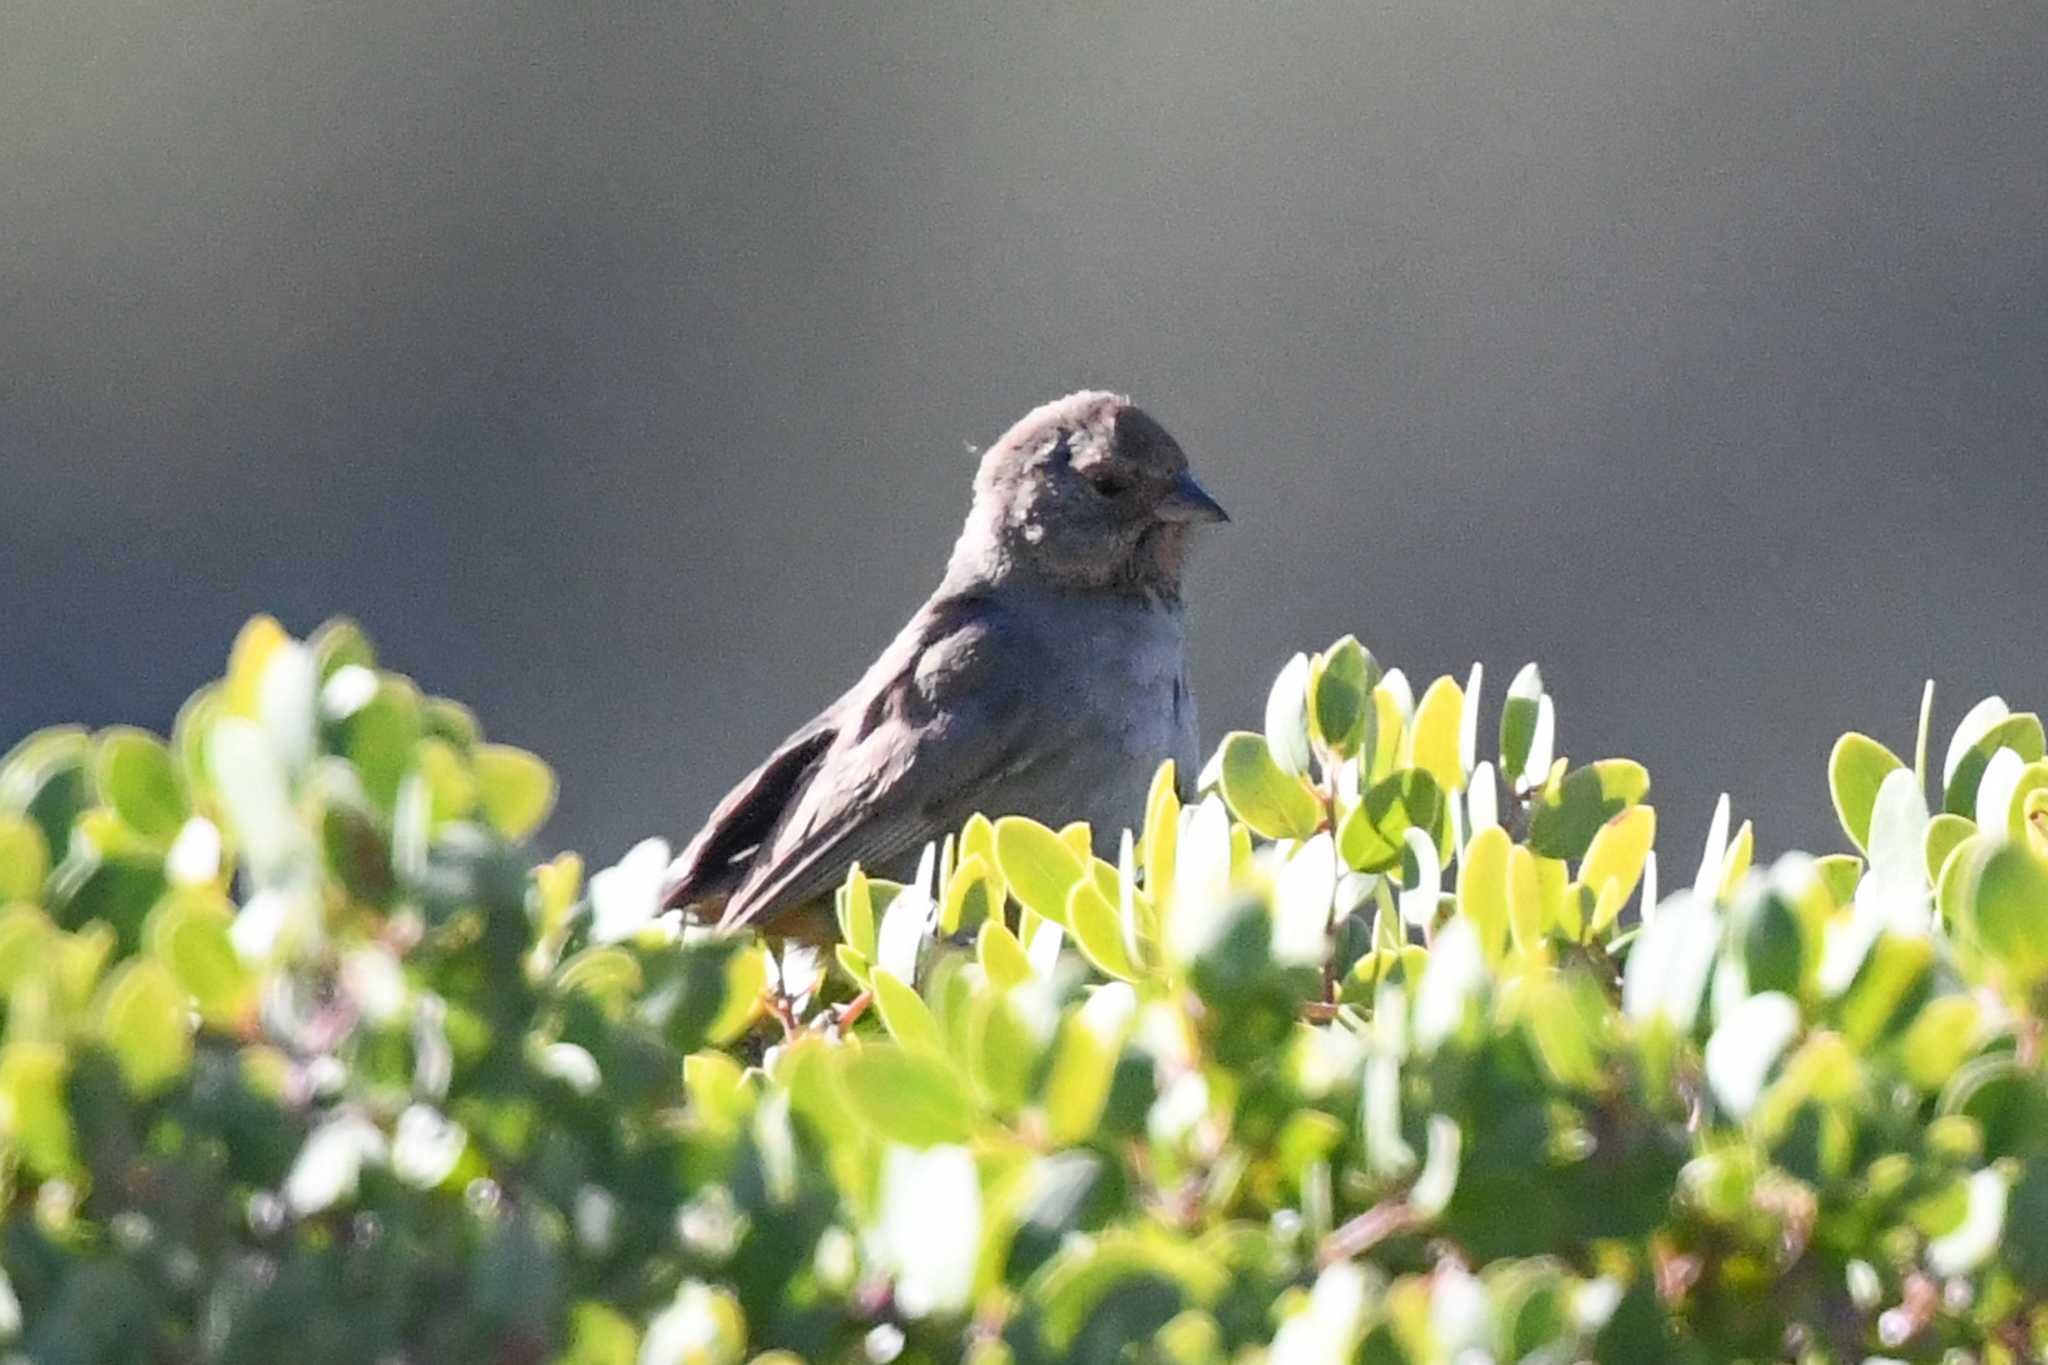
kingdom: Animalia
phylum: Chordata
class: Aves
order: Passeriformes
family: Passerellidae
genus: Melozone
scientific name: Melozone crissalis
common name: California towhee
